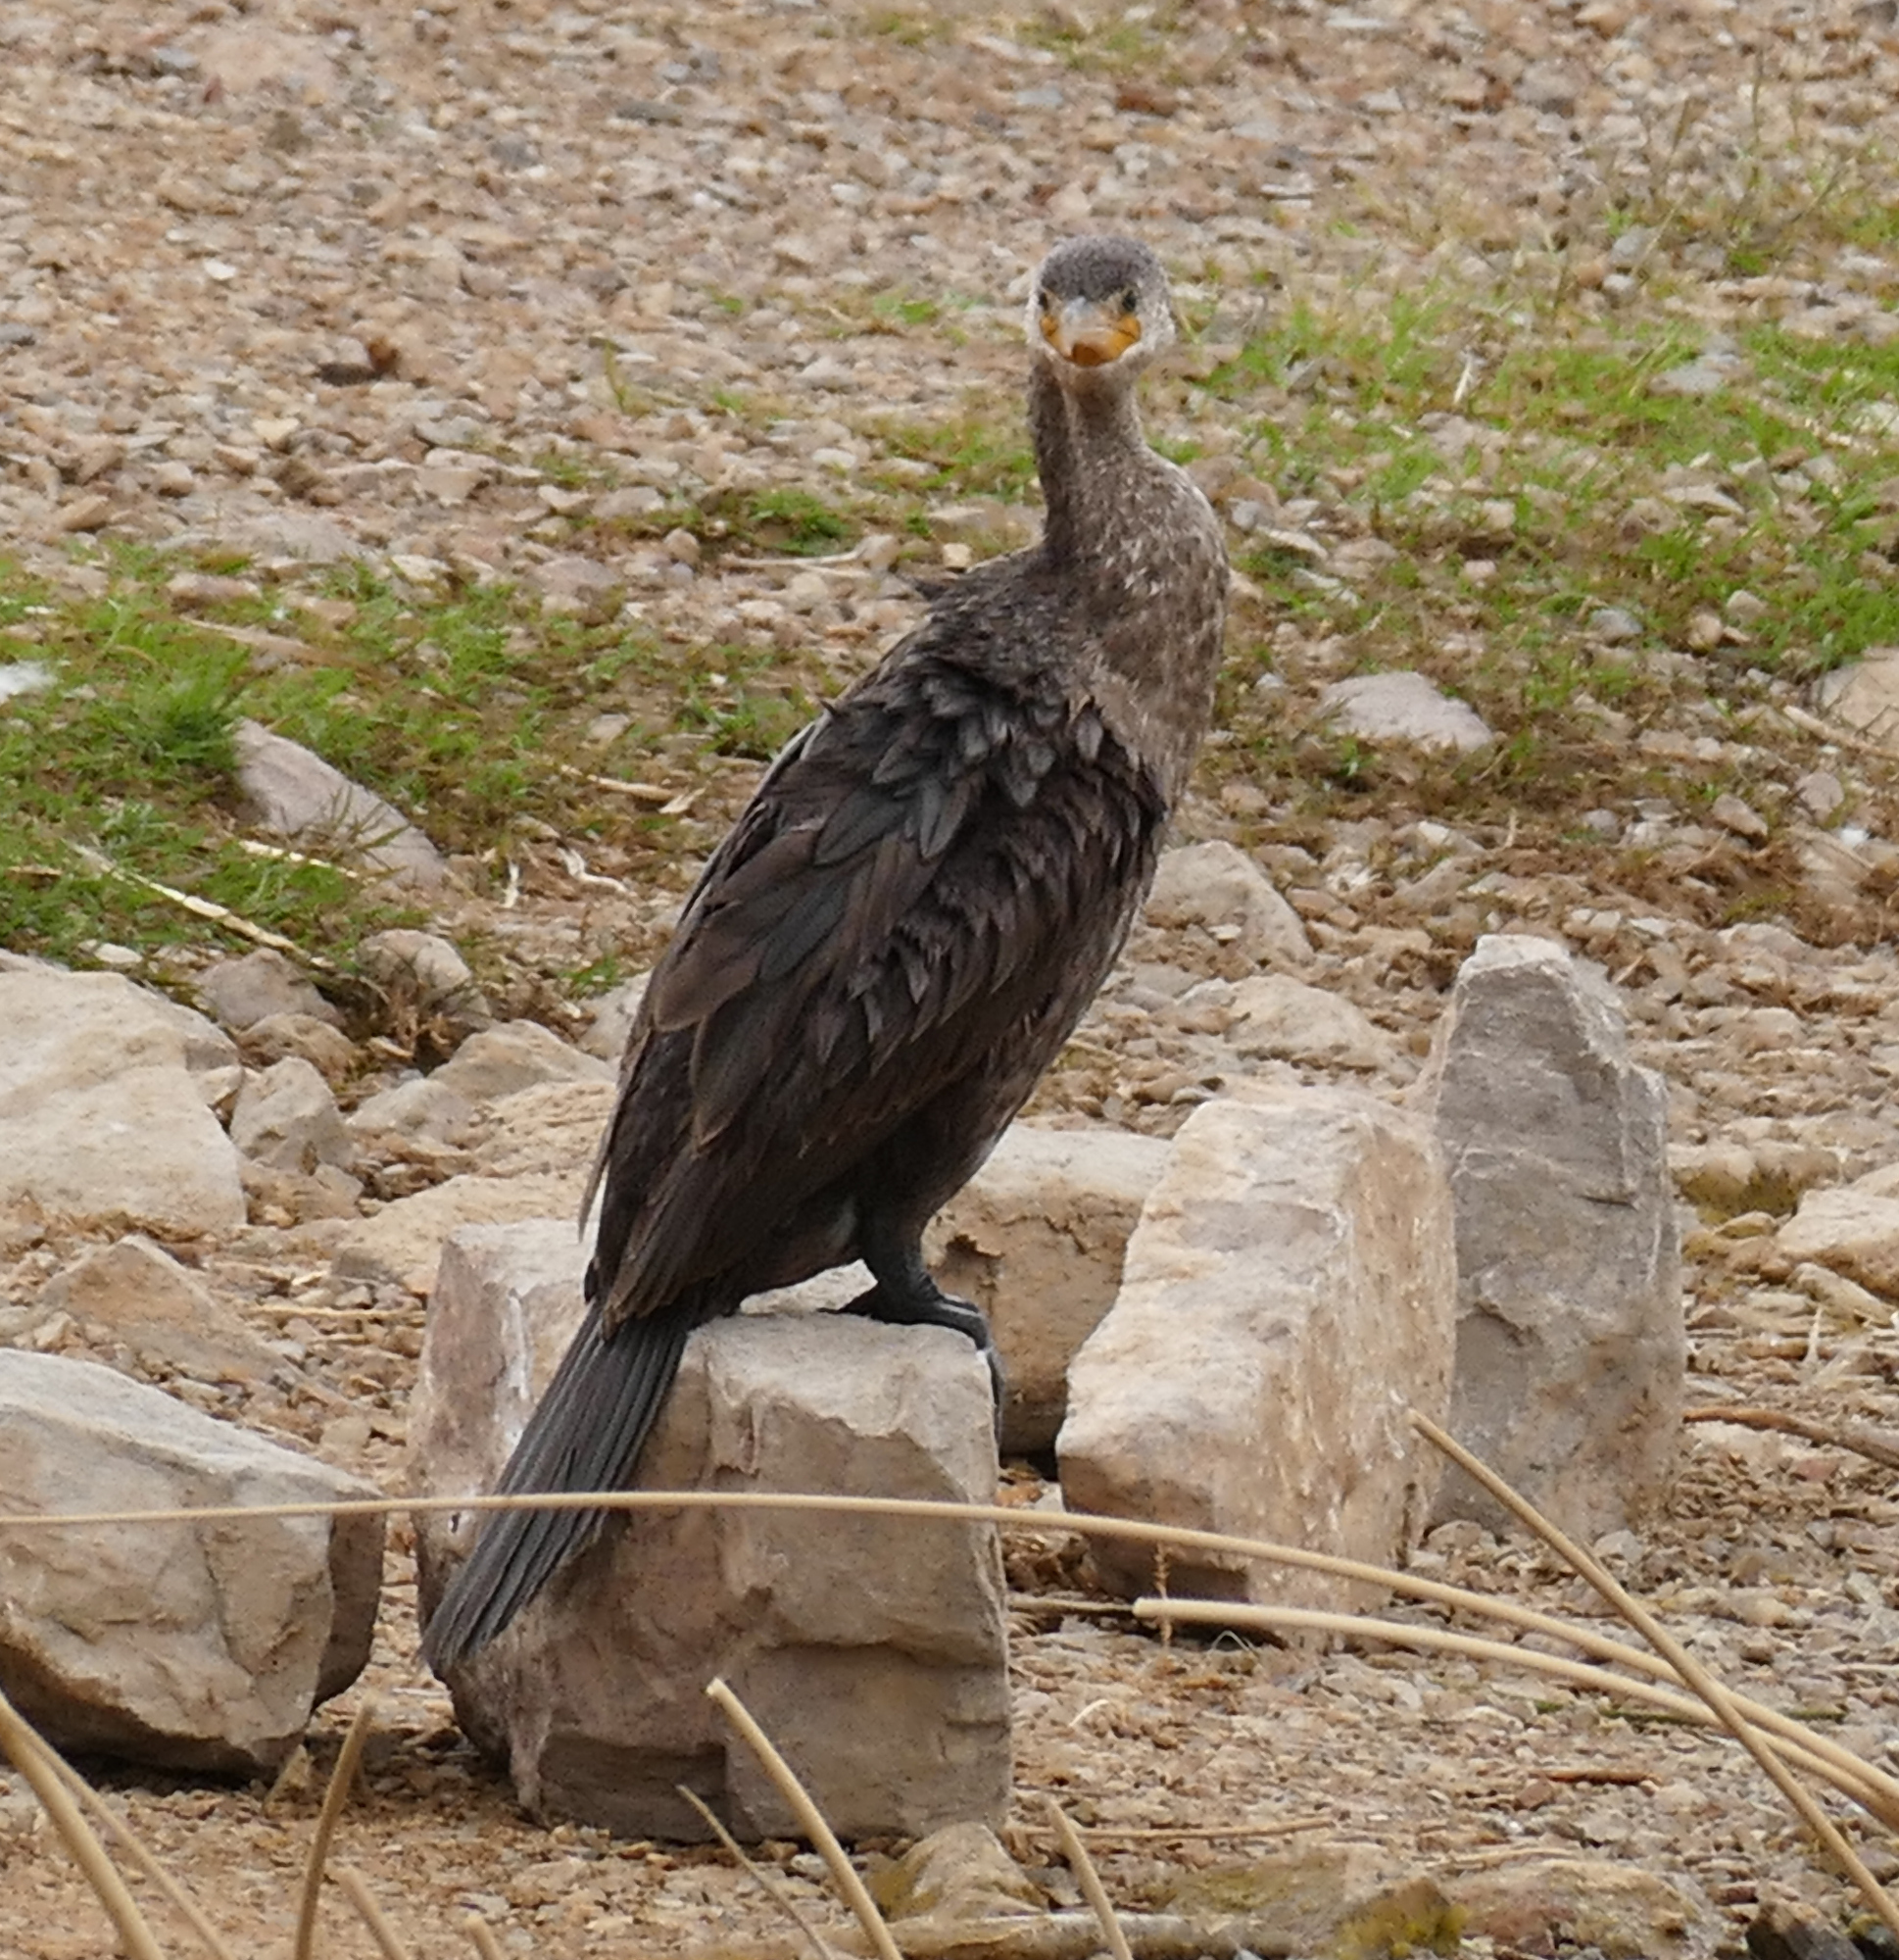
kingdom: Animalia
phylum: Chordata
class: Aves
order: Suliformes
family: Phalacrocoracidae
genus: Phalacrocorax
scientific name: Phalacrocorax brasilianus
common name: Neotropic cormorant
